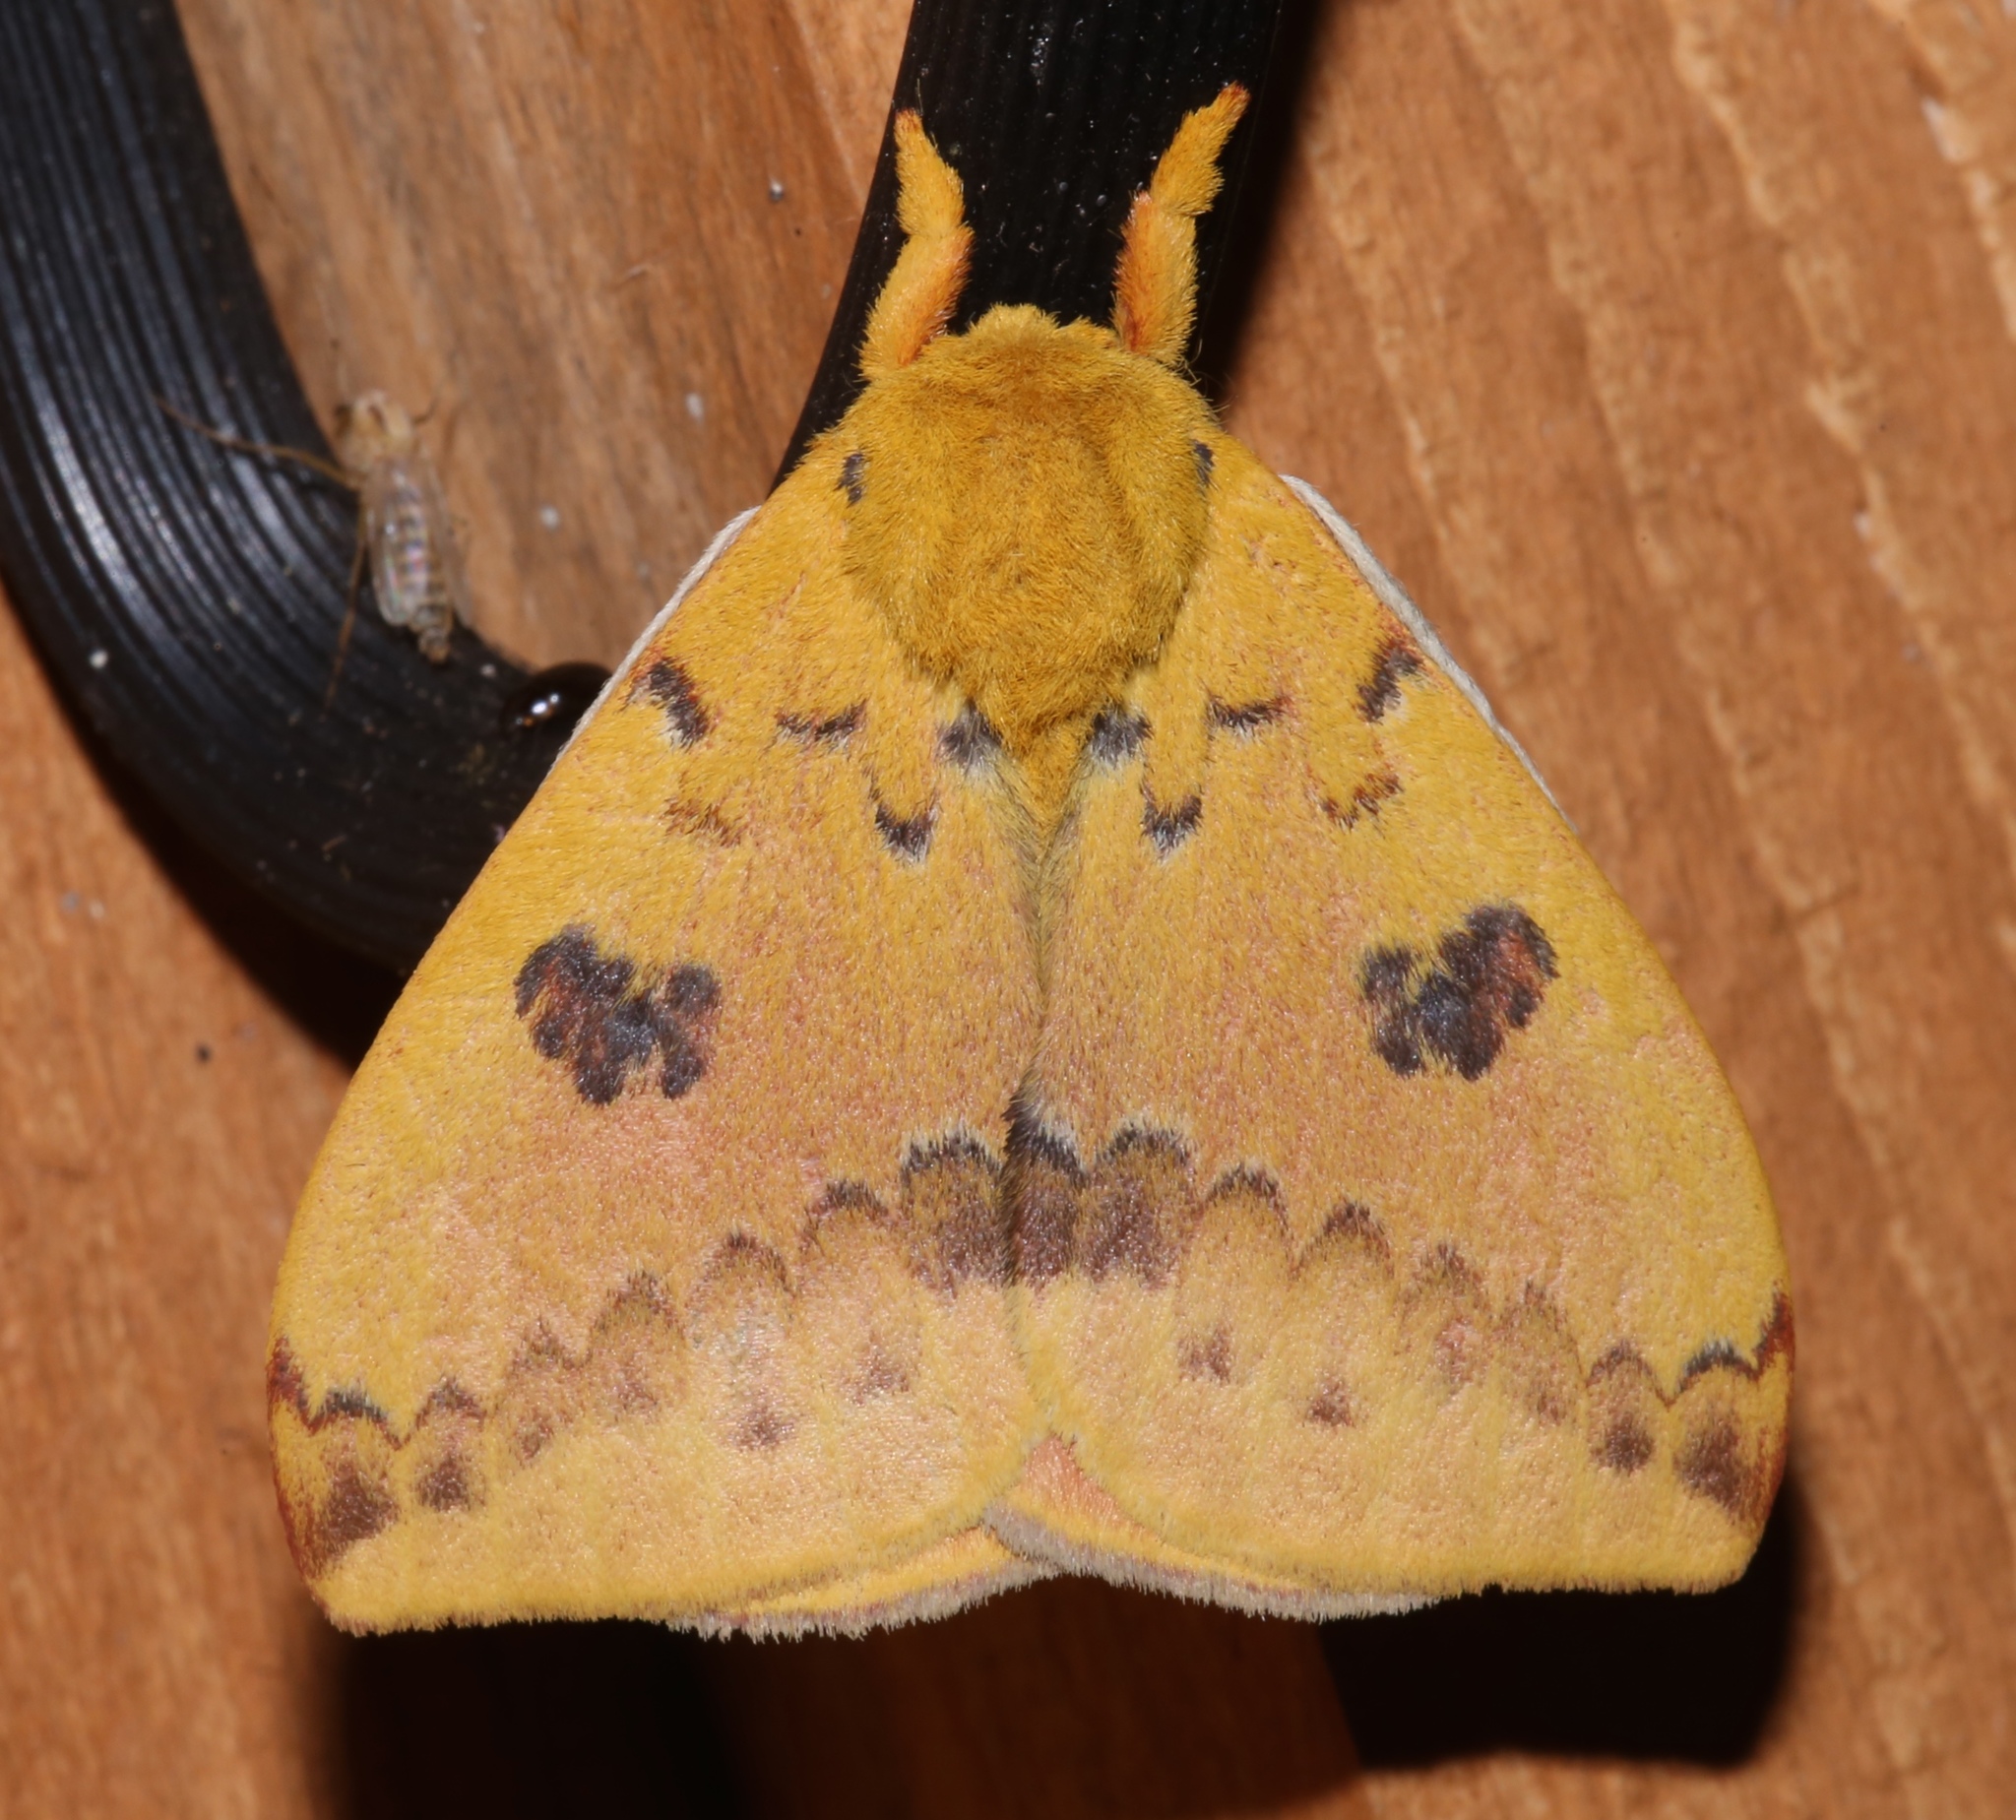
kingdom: Animalia
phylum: Arthropoda
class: Insecta
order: Lepidoptera
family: Saturniidae
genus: Automeris
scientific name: Automeris io
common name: Io moth
